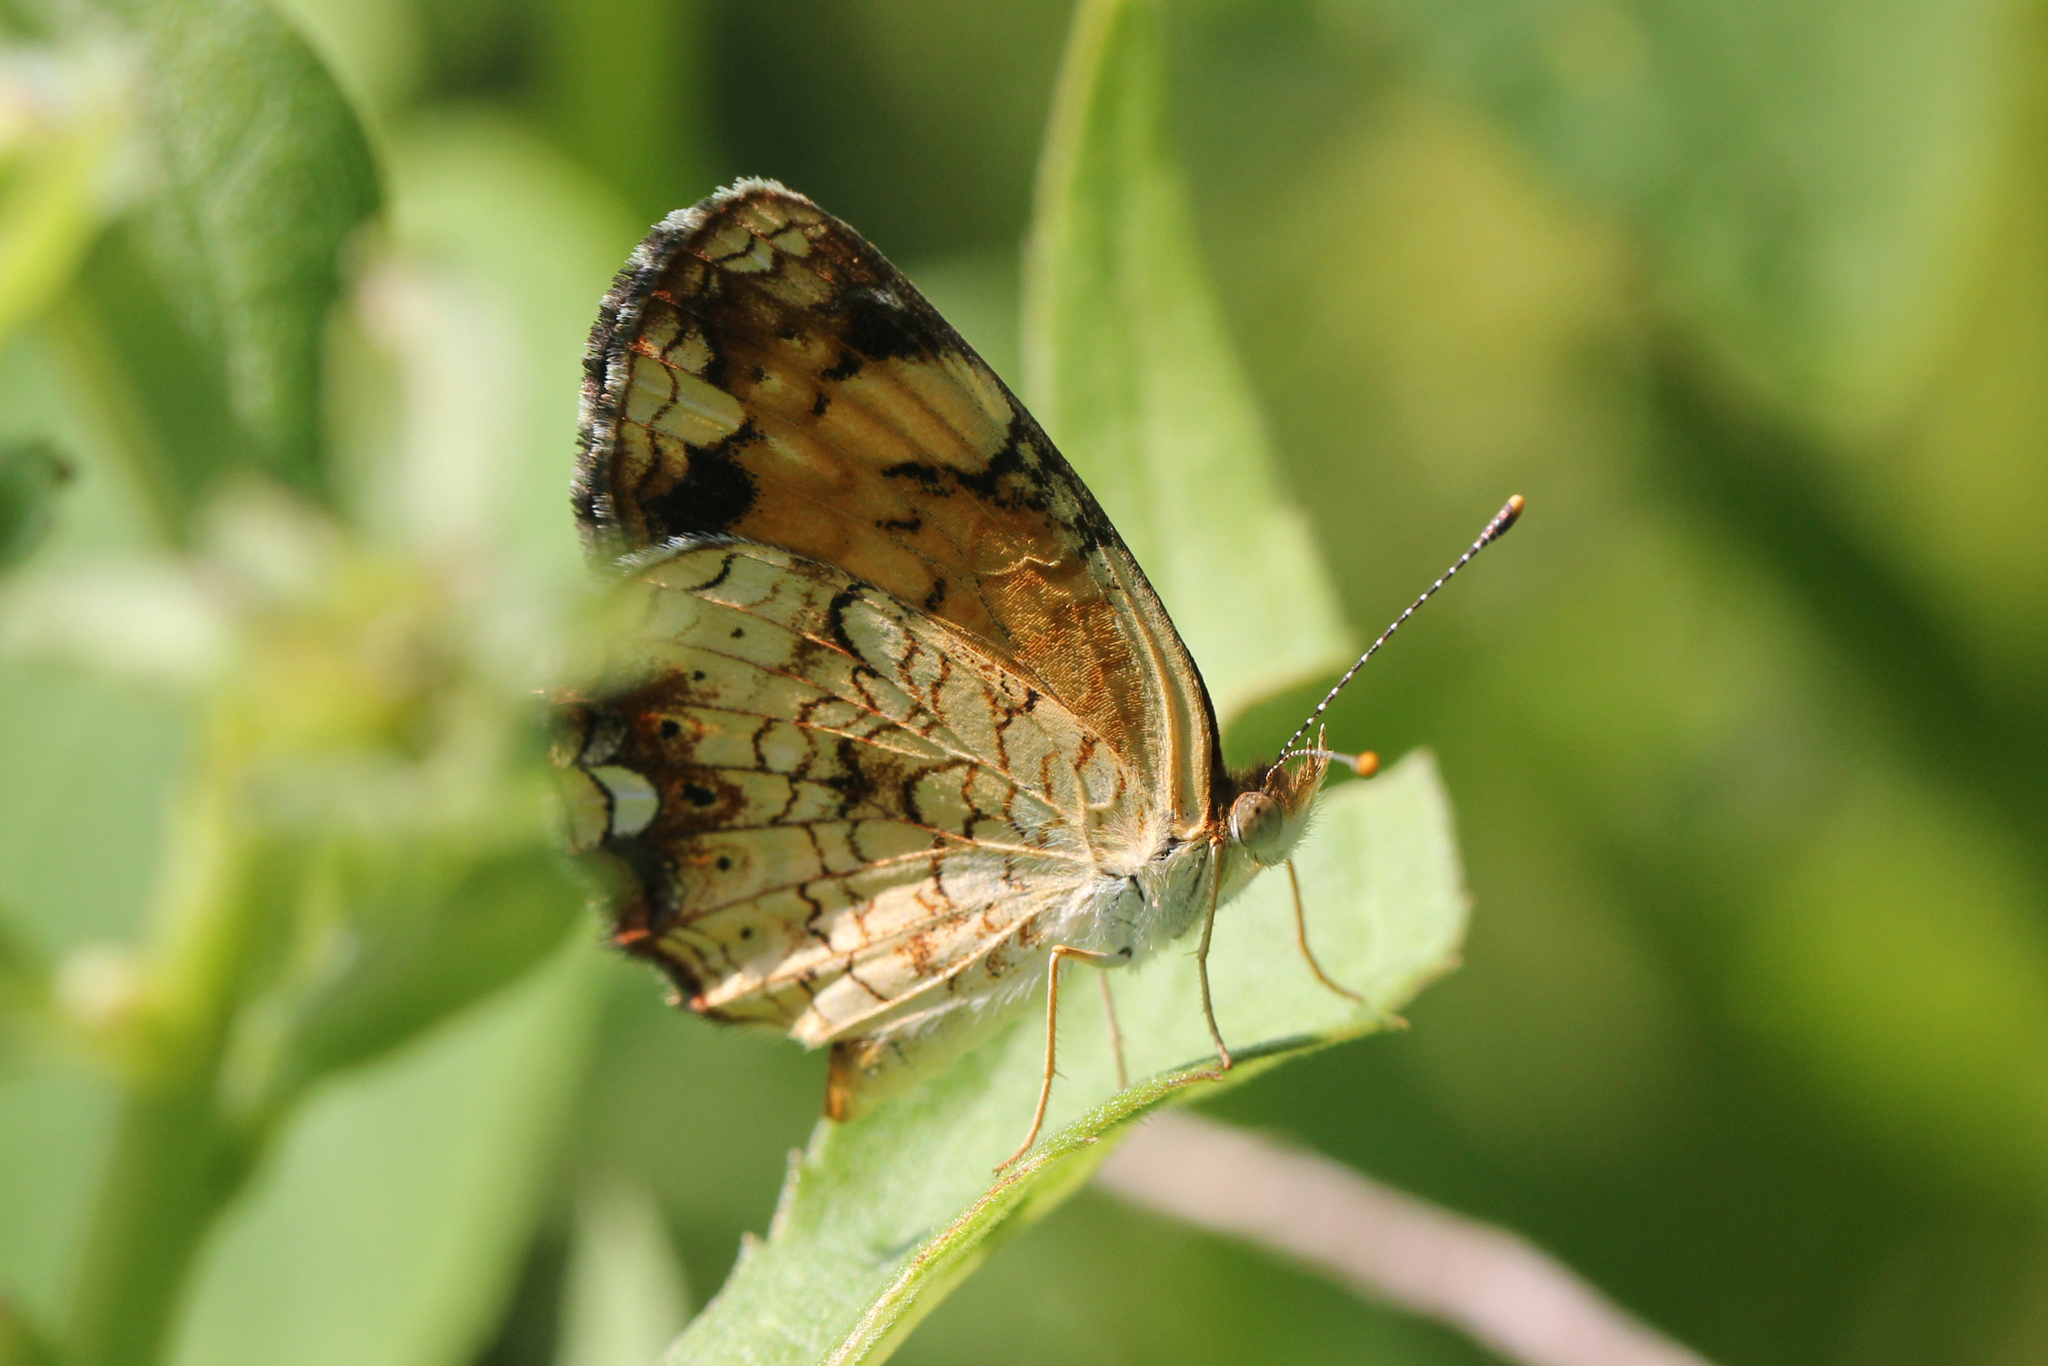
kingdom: Animalia
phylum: Arthropoda
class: Insecta
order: Lepidoptera
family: Nymphalidae
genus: Phyciodes
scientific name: Phyciodes tharos
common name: Pearl crescent
